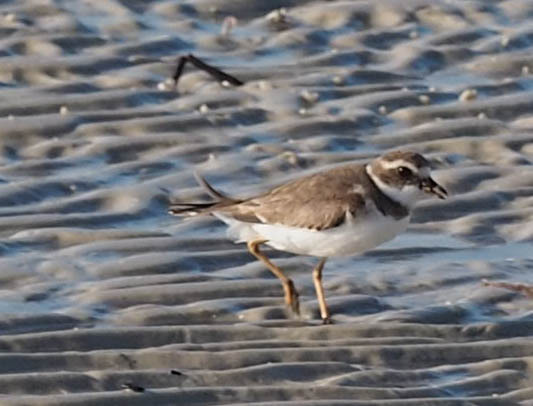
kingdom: Animalia
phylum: Chordata
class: Aves
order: Charadriiformes
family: Charadriidae
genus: Charadrius
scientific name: Charadrius semipalmatus
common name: Semipalmated plover
